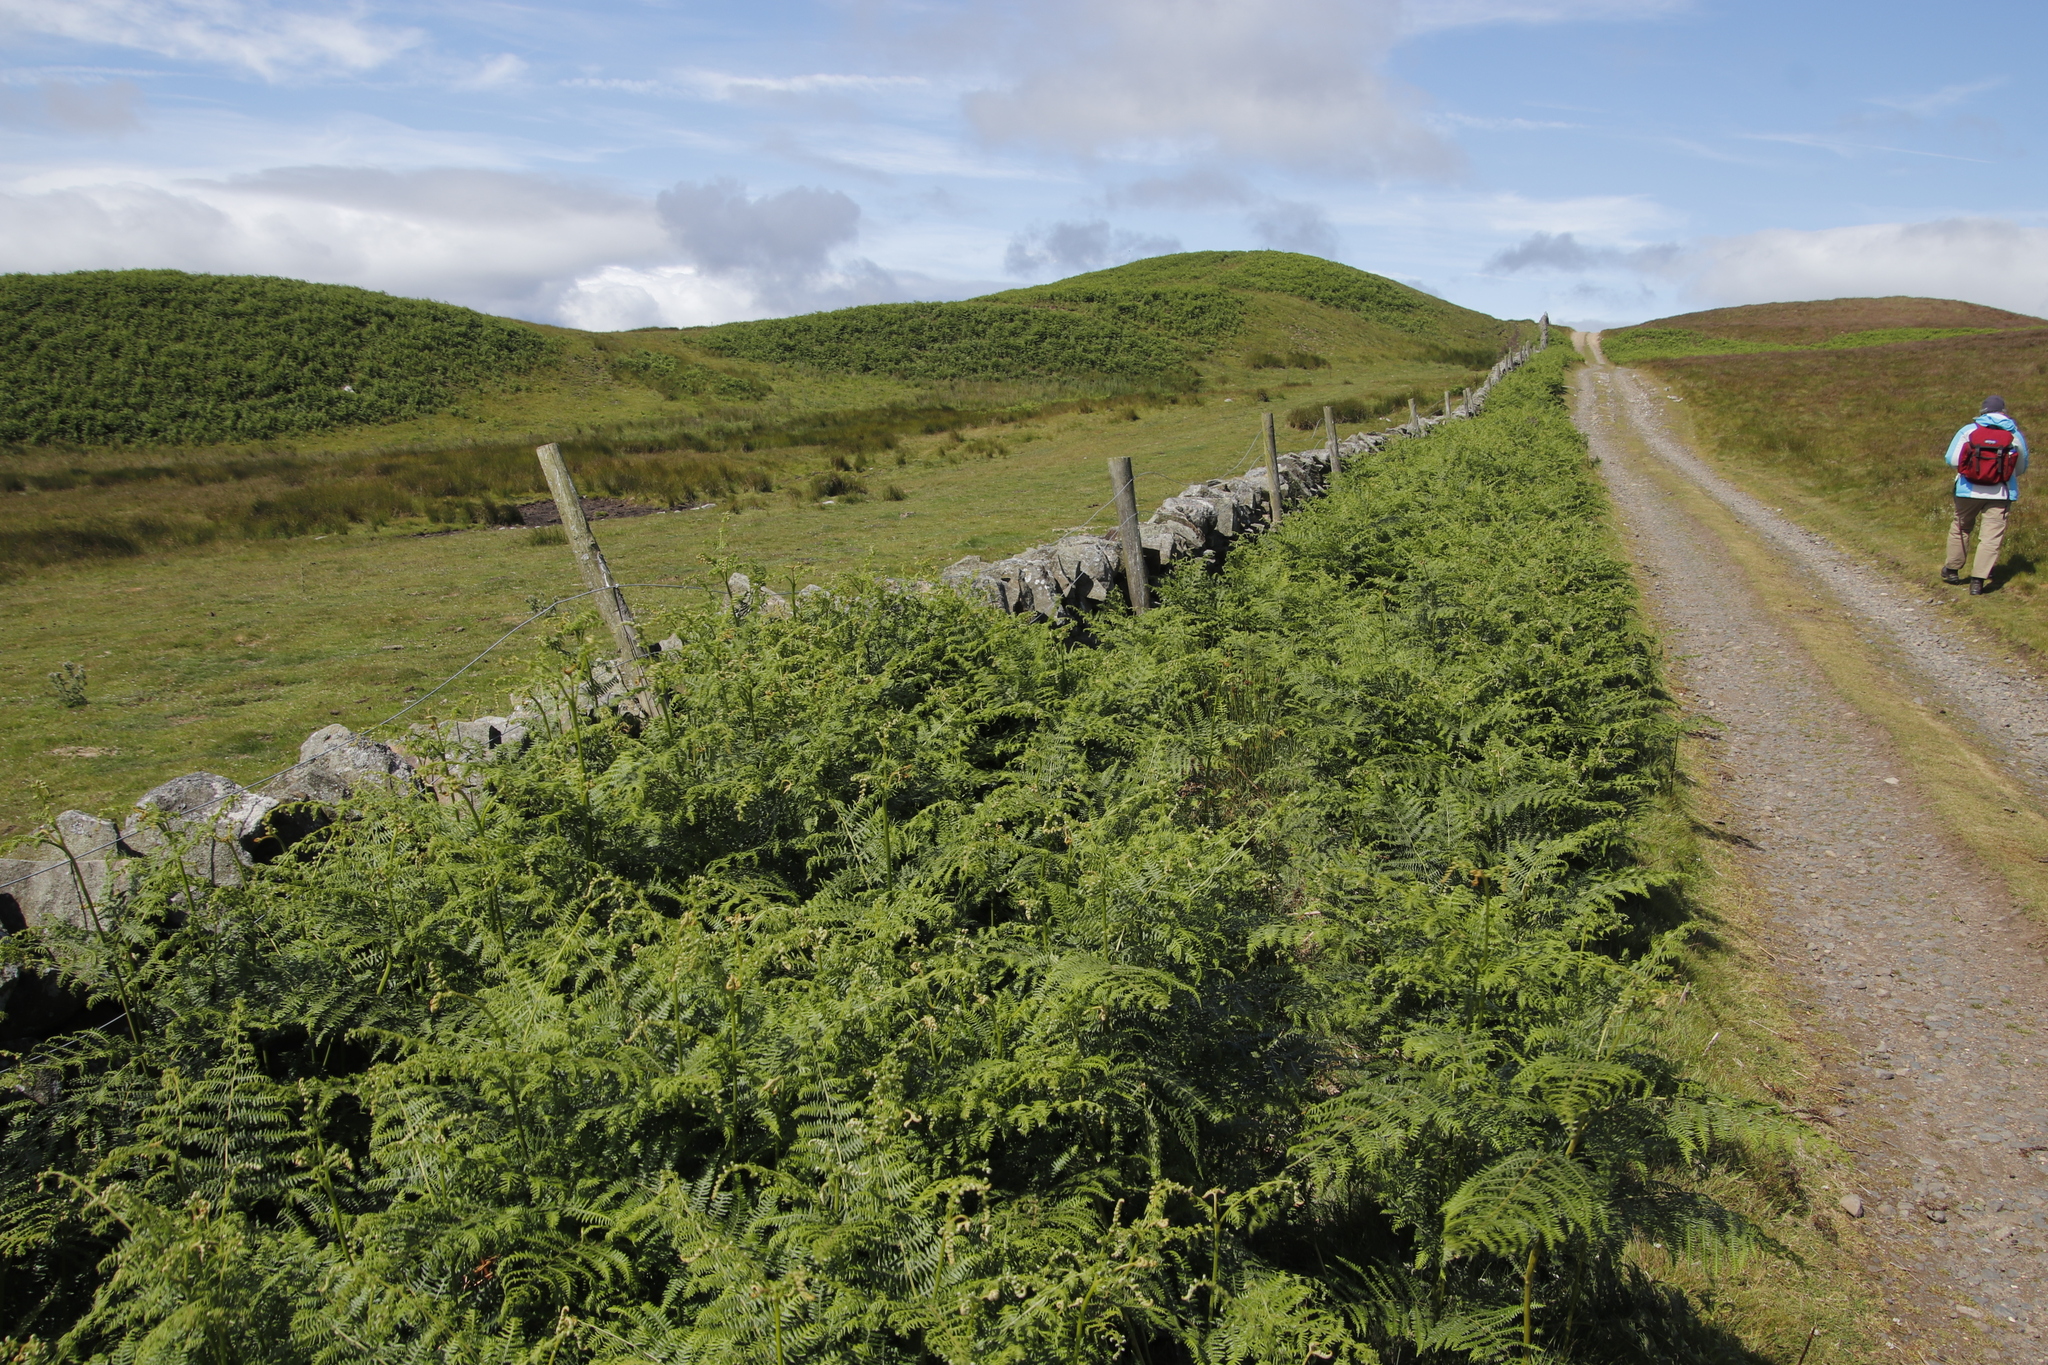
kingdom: Plantae
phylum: Tracheophyta
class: Polypodiopsida
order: Polypodiales
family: Dennstaedtiaceae
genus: Pteridium
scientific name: Pteridium aquilinum
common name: Bracken
